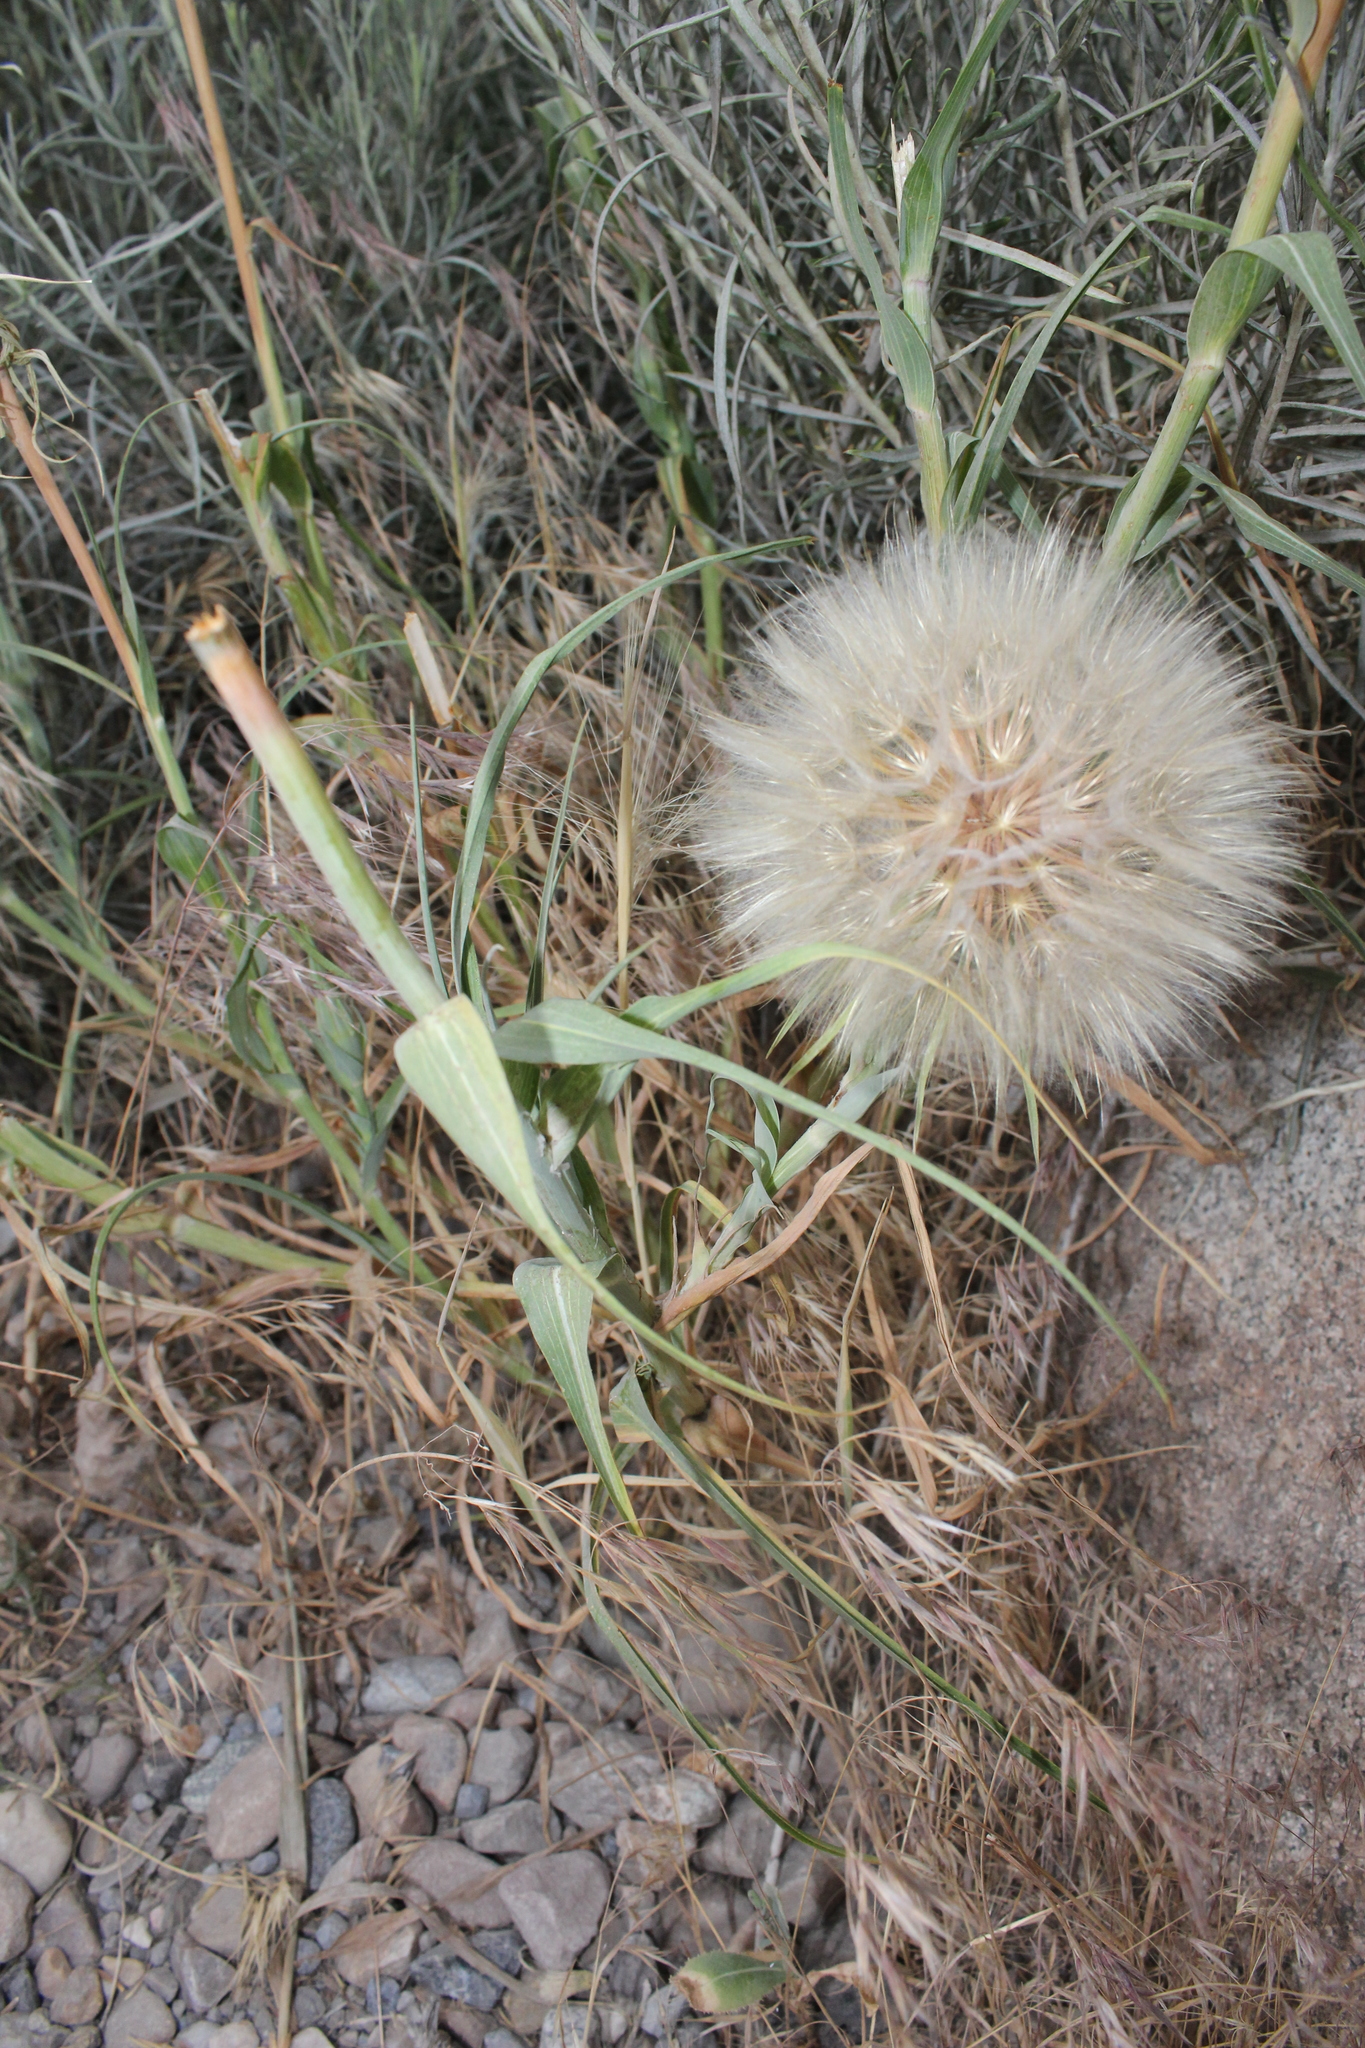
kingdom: Plantae
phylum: Tracheophyta
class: Magnoliopsida
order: Asterales
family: Asteraceae
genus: Tragopogon
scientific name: Tragopogon dubius
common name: Yellow salsify
